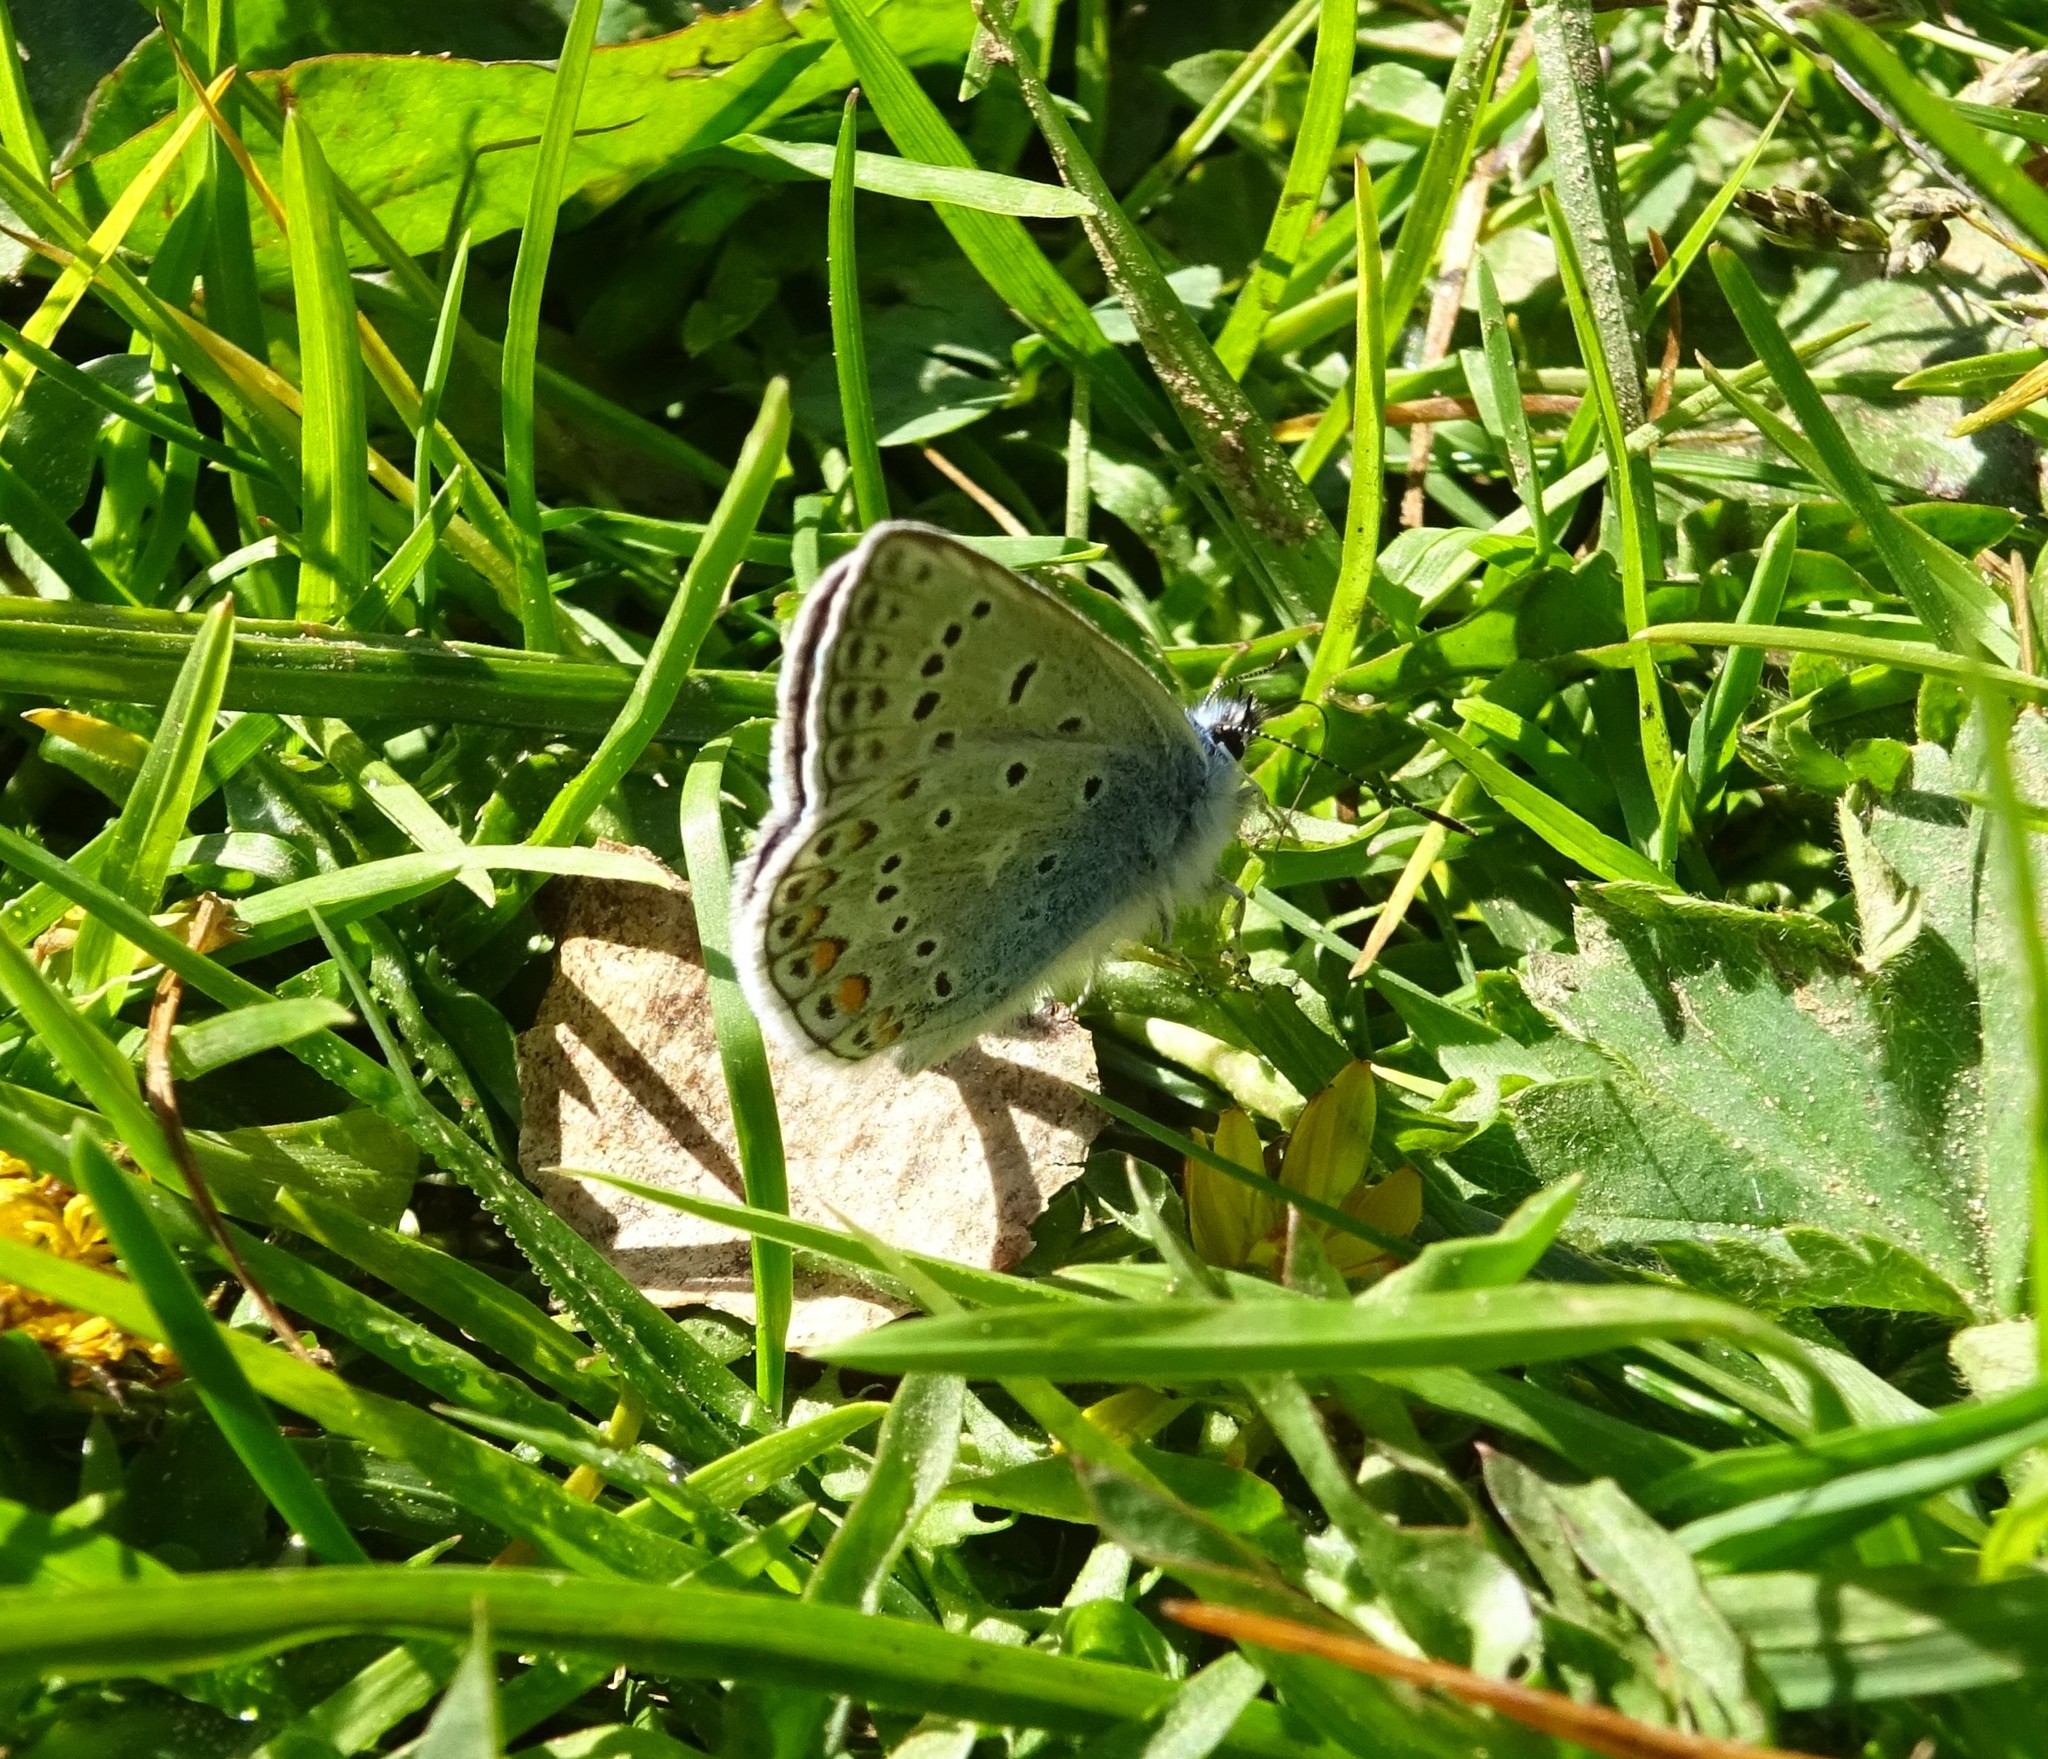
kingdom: Animalia
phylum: Arthropoda
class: Insecta
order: Lepidoptera
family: Lycaenidae
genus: Polyommatus
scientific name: Polyommatus icarus
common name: Common blue
